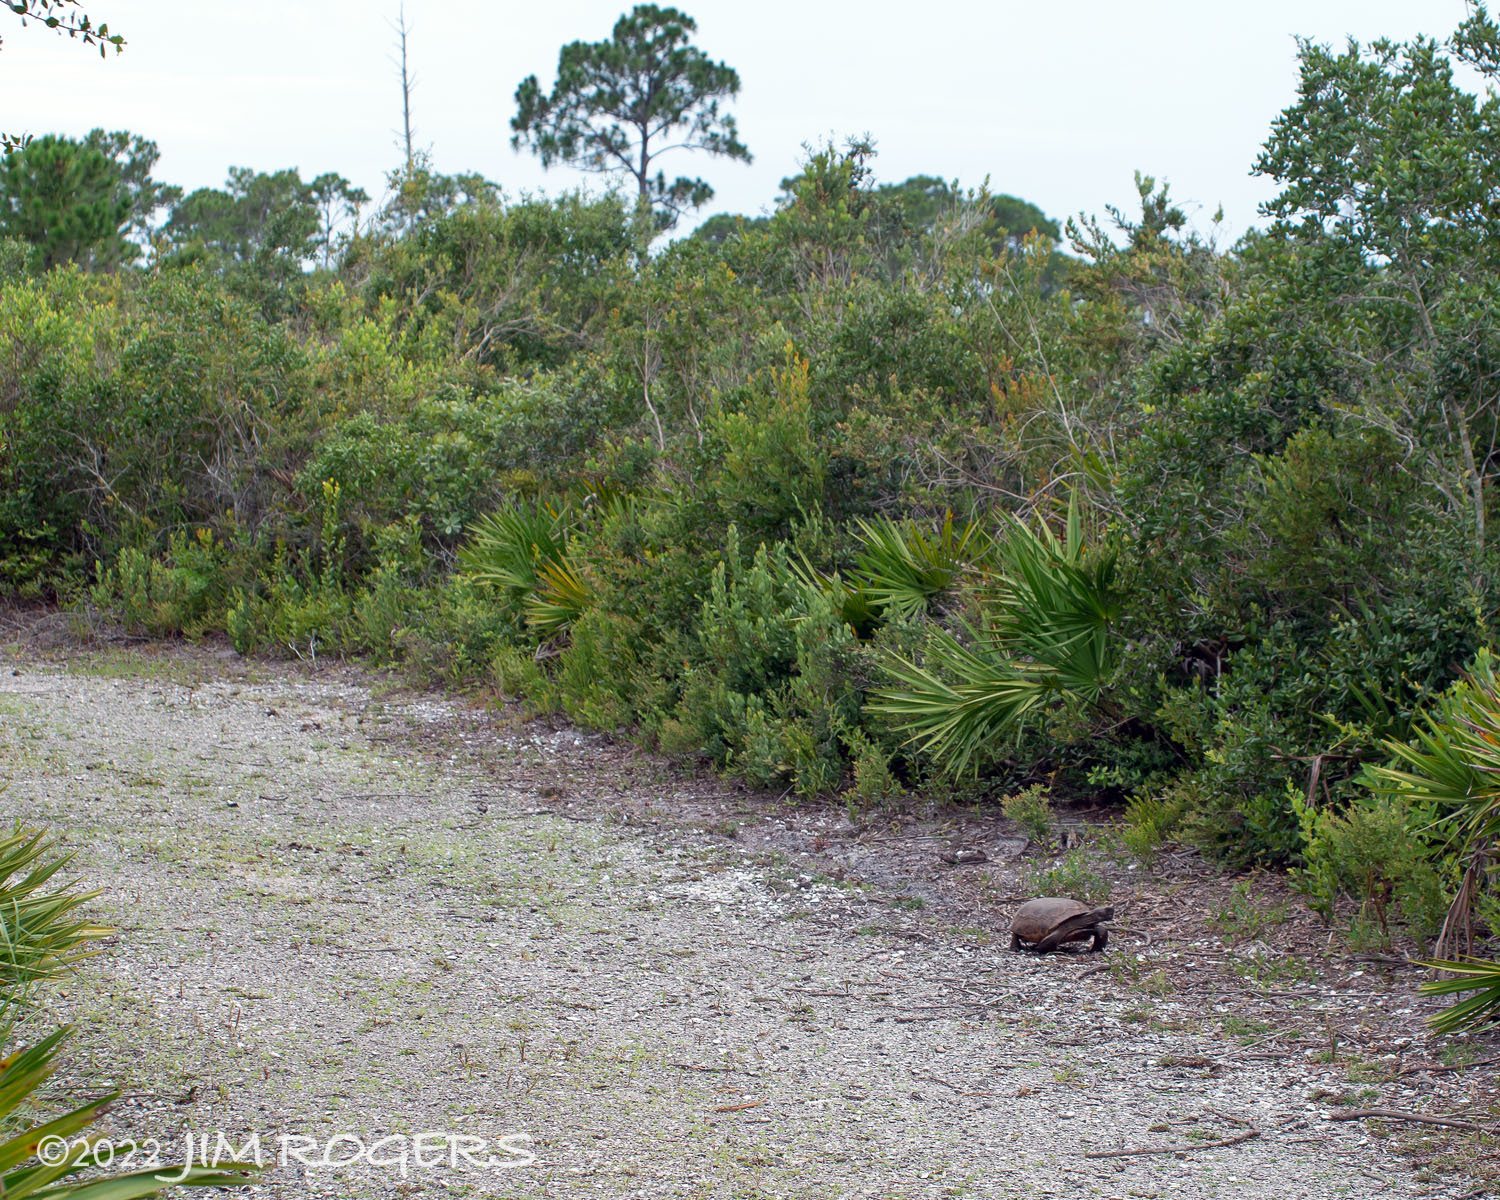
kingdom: Animalia
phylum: Chordata
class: Testudines
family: Testudinidae
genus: Gopherus
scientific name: Gopherus polyphemus
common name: Florida gopher tortoise
